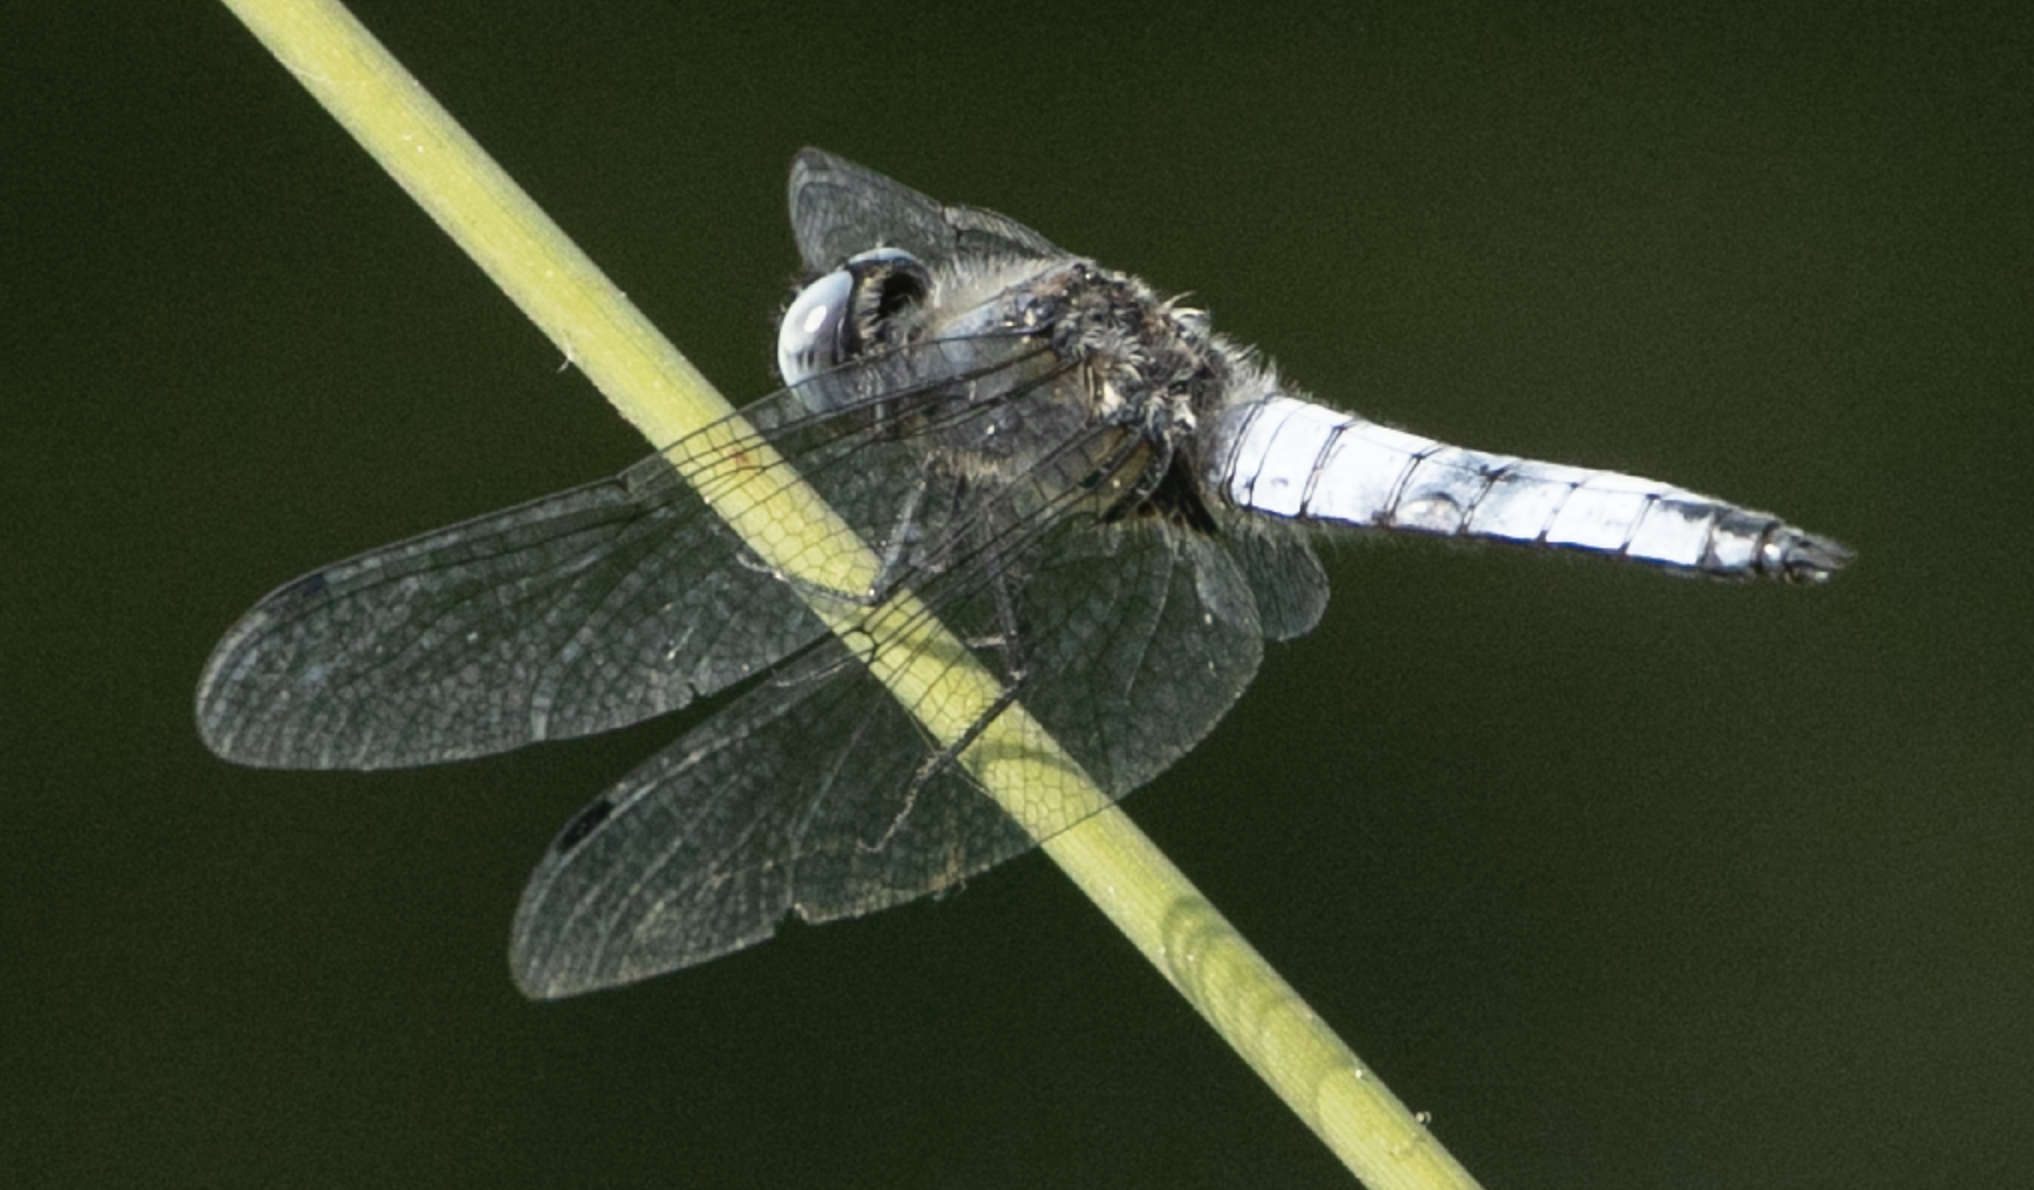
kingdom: Animalia
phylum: Arthropoda
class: Insecta
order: Odonata
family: Libellulidae
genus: Libellula
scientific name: Libellula fulva
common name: Blue chaser
